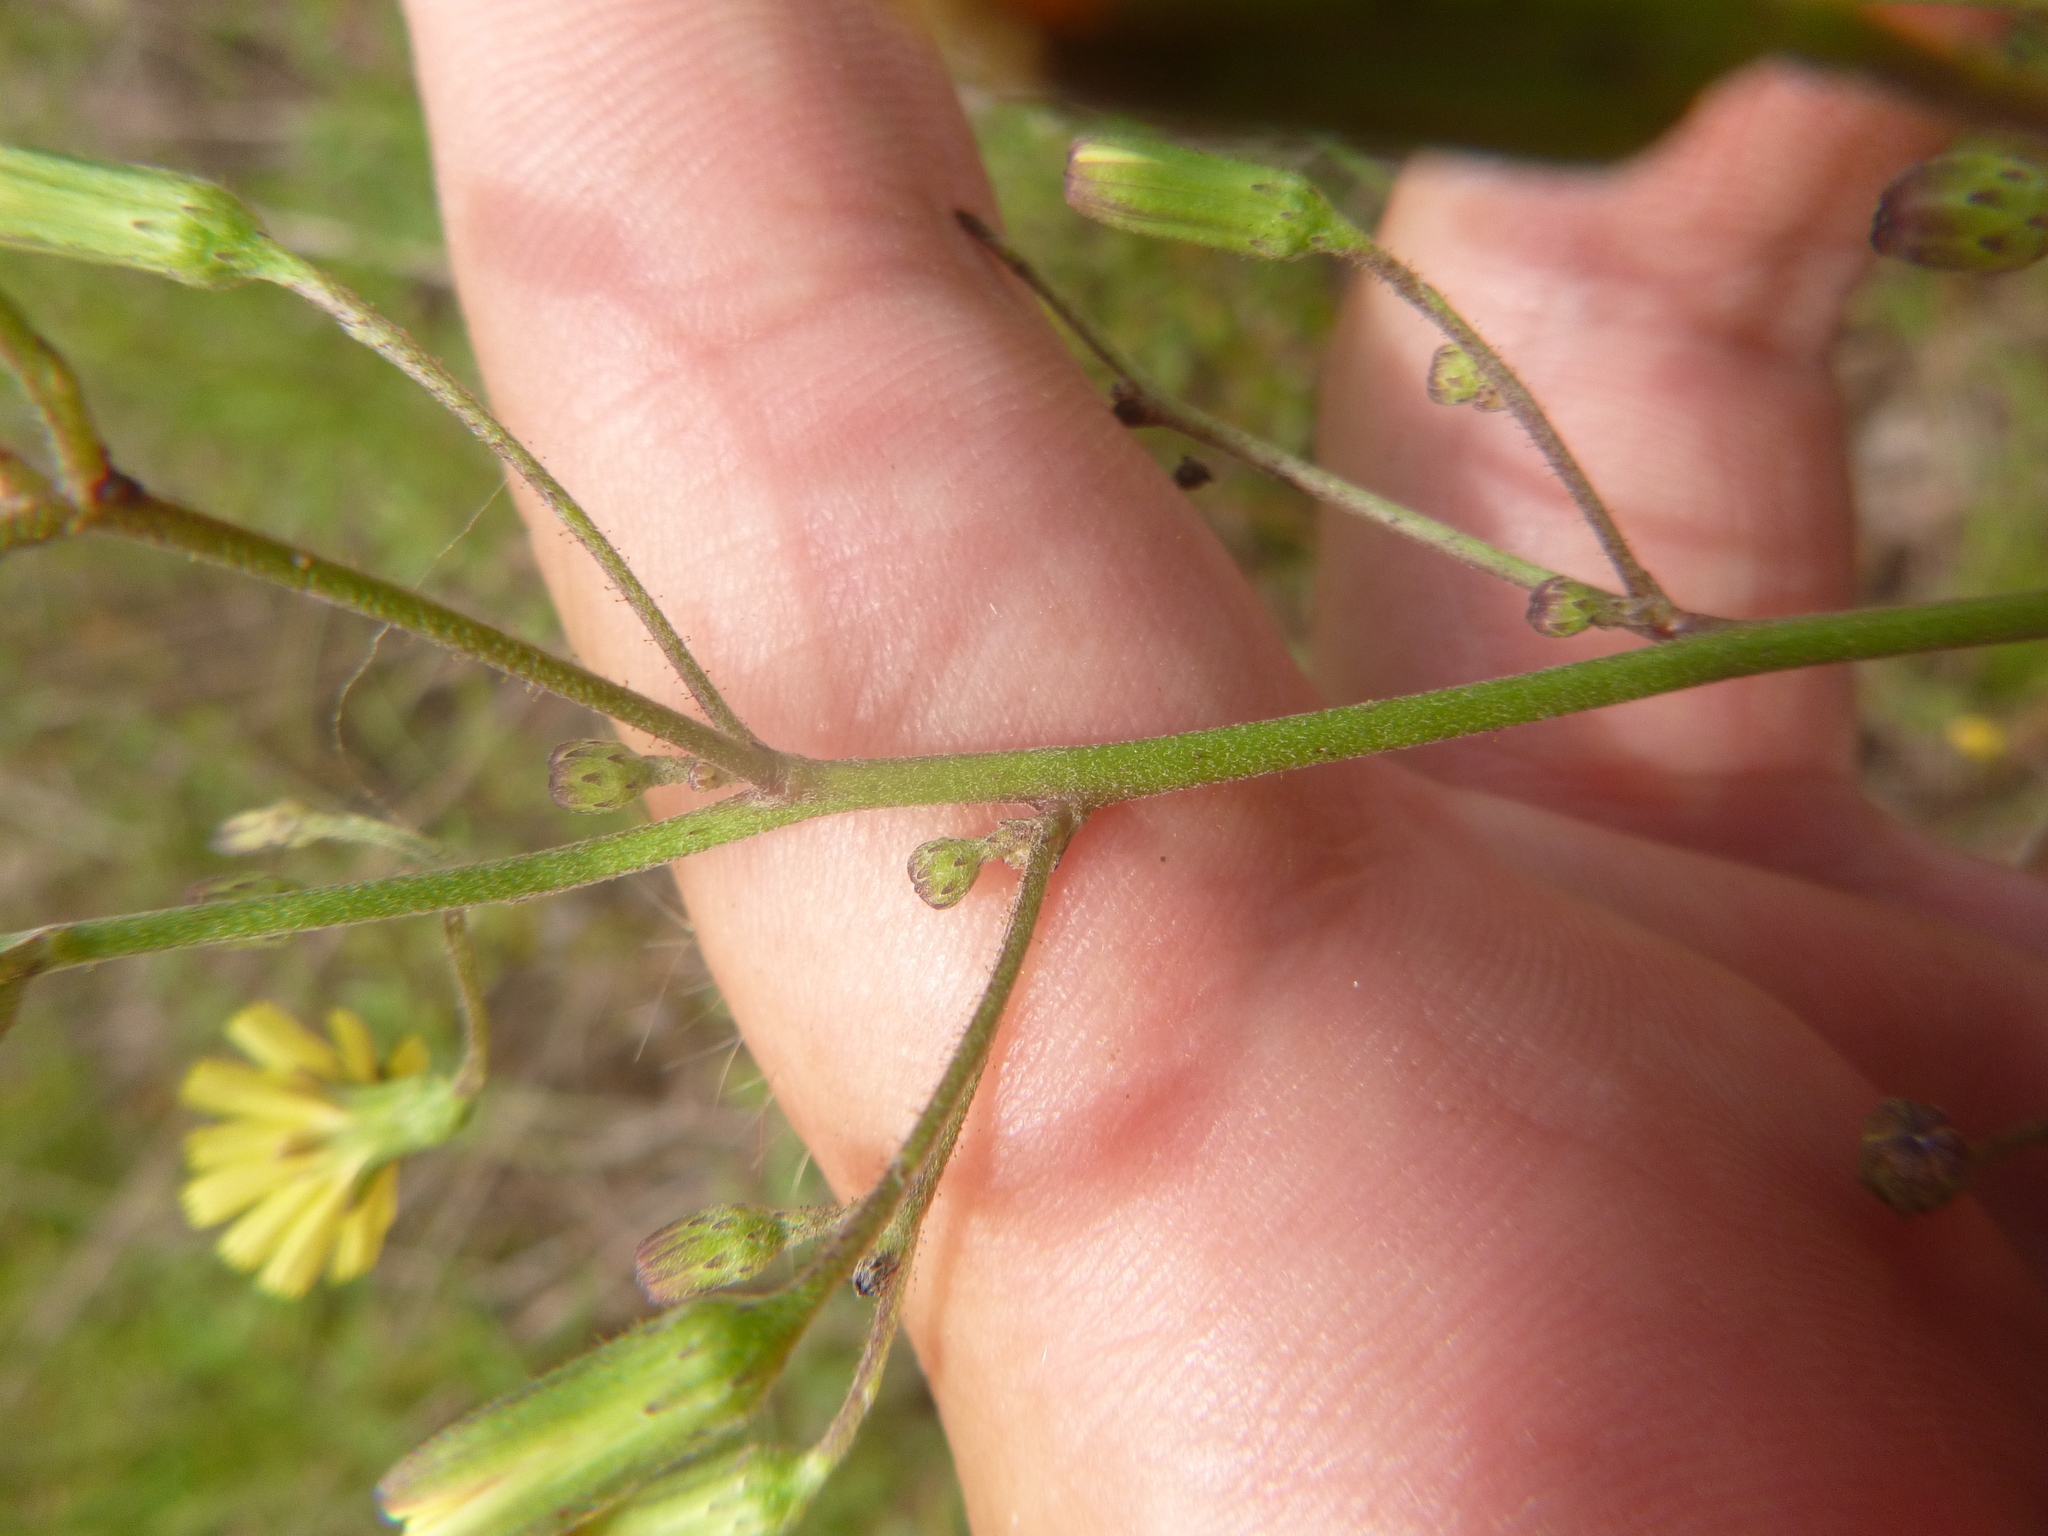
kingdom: Plantae
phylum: Tracheophyta
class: Magnoliopsida
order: Asterales
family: Asteraceae
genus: Hieracium
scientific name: Hieracium gronovii
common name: Beaked hawkweed
